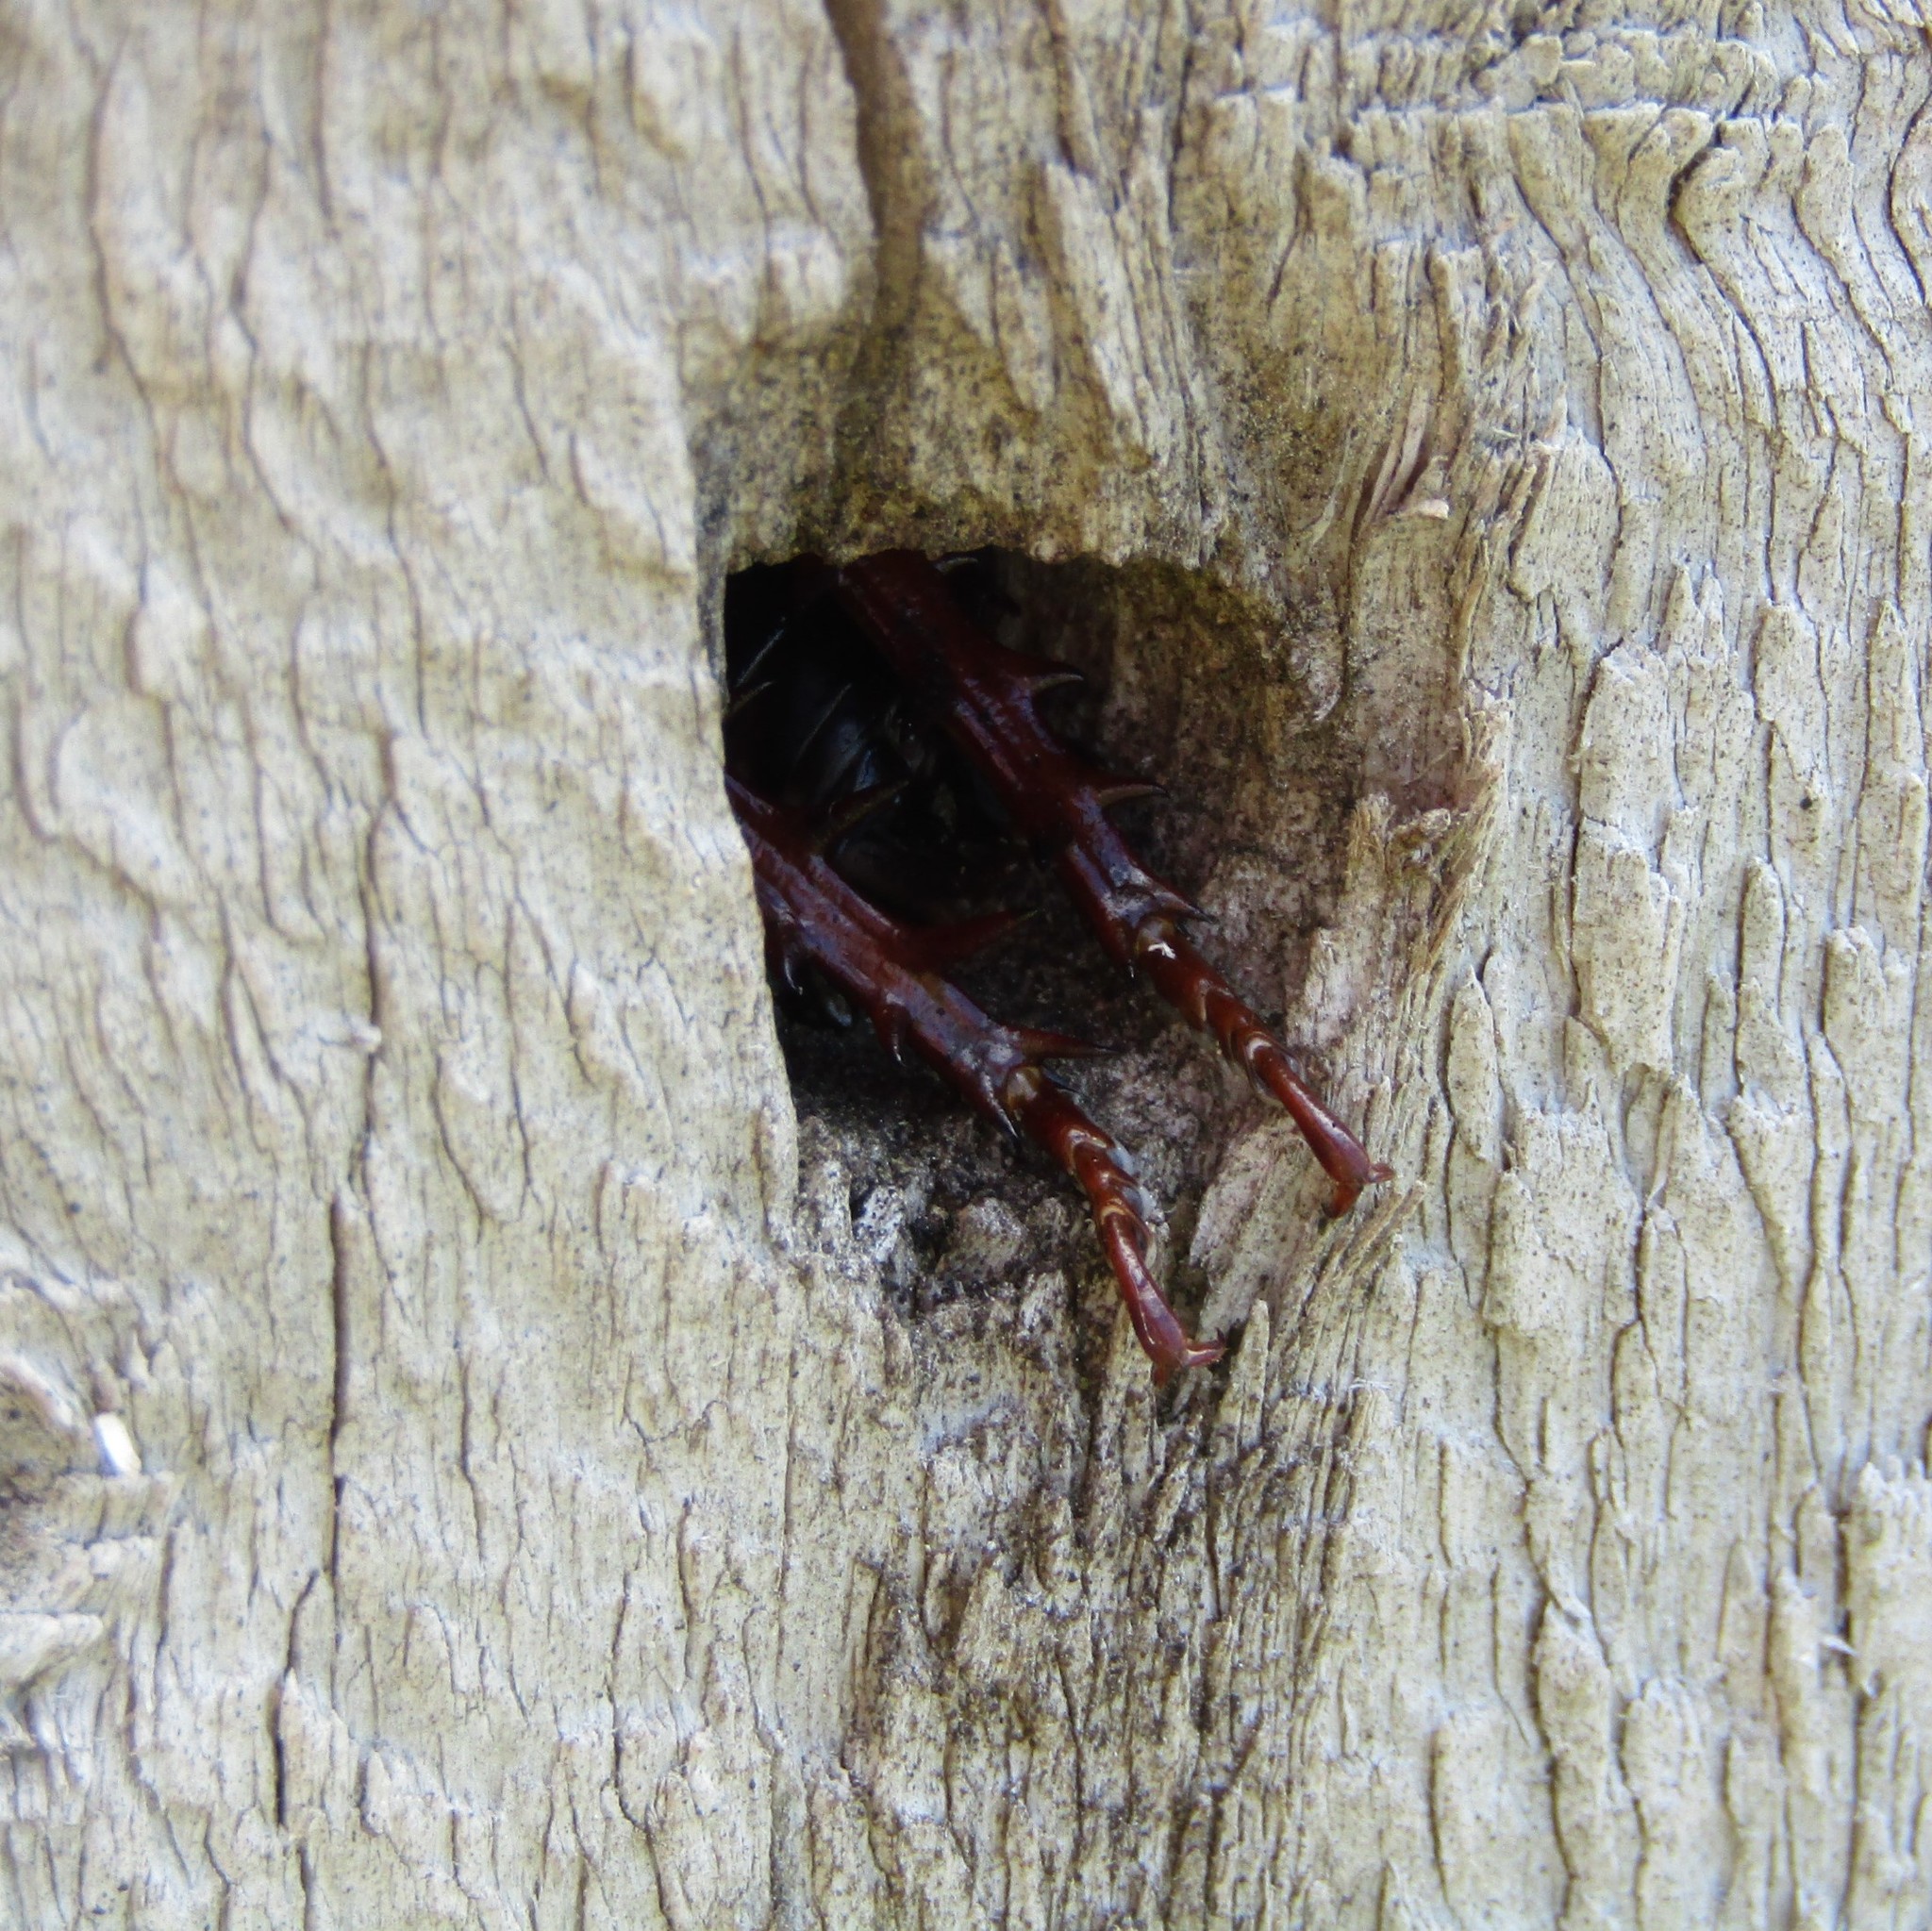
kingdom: Animalia
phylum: Arthropoda
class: Insecta
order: Orthoptera
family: Anostostomatidae
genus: Hemideina
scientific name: Hemideina crassidens
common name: Wellington tree weta
